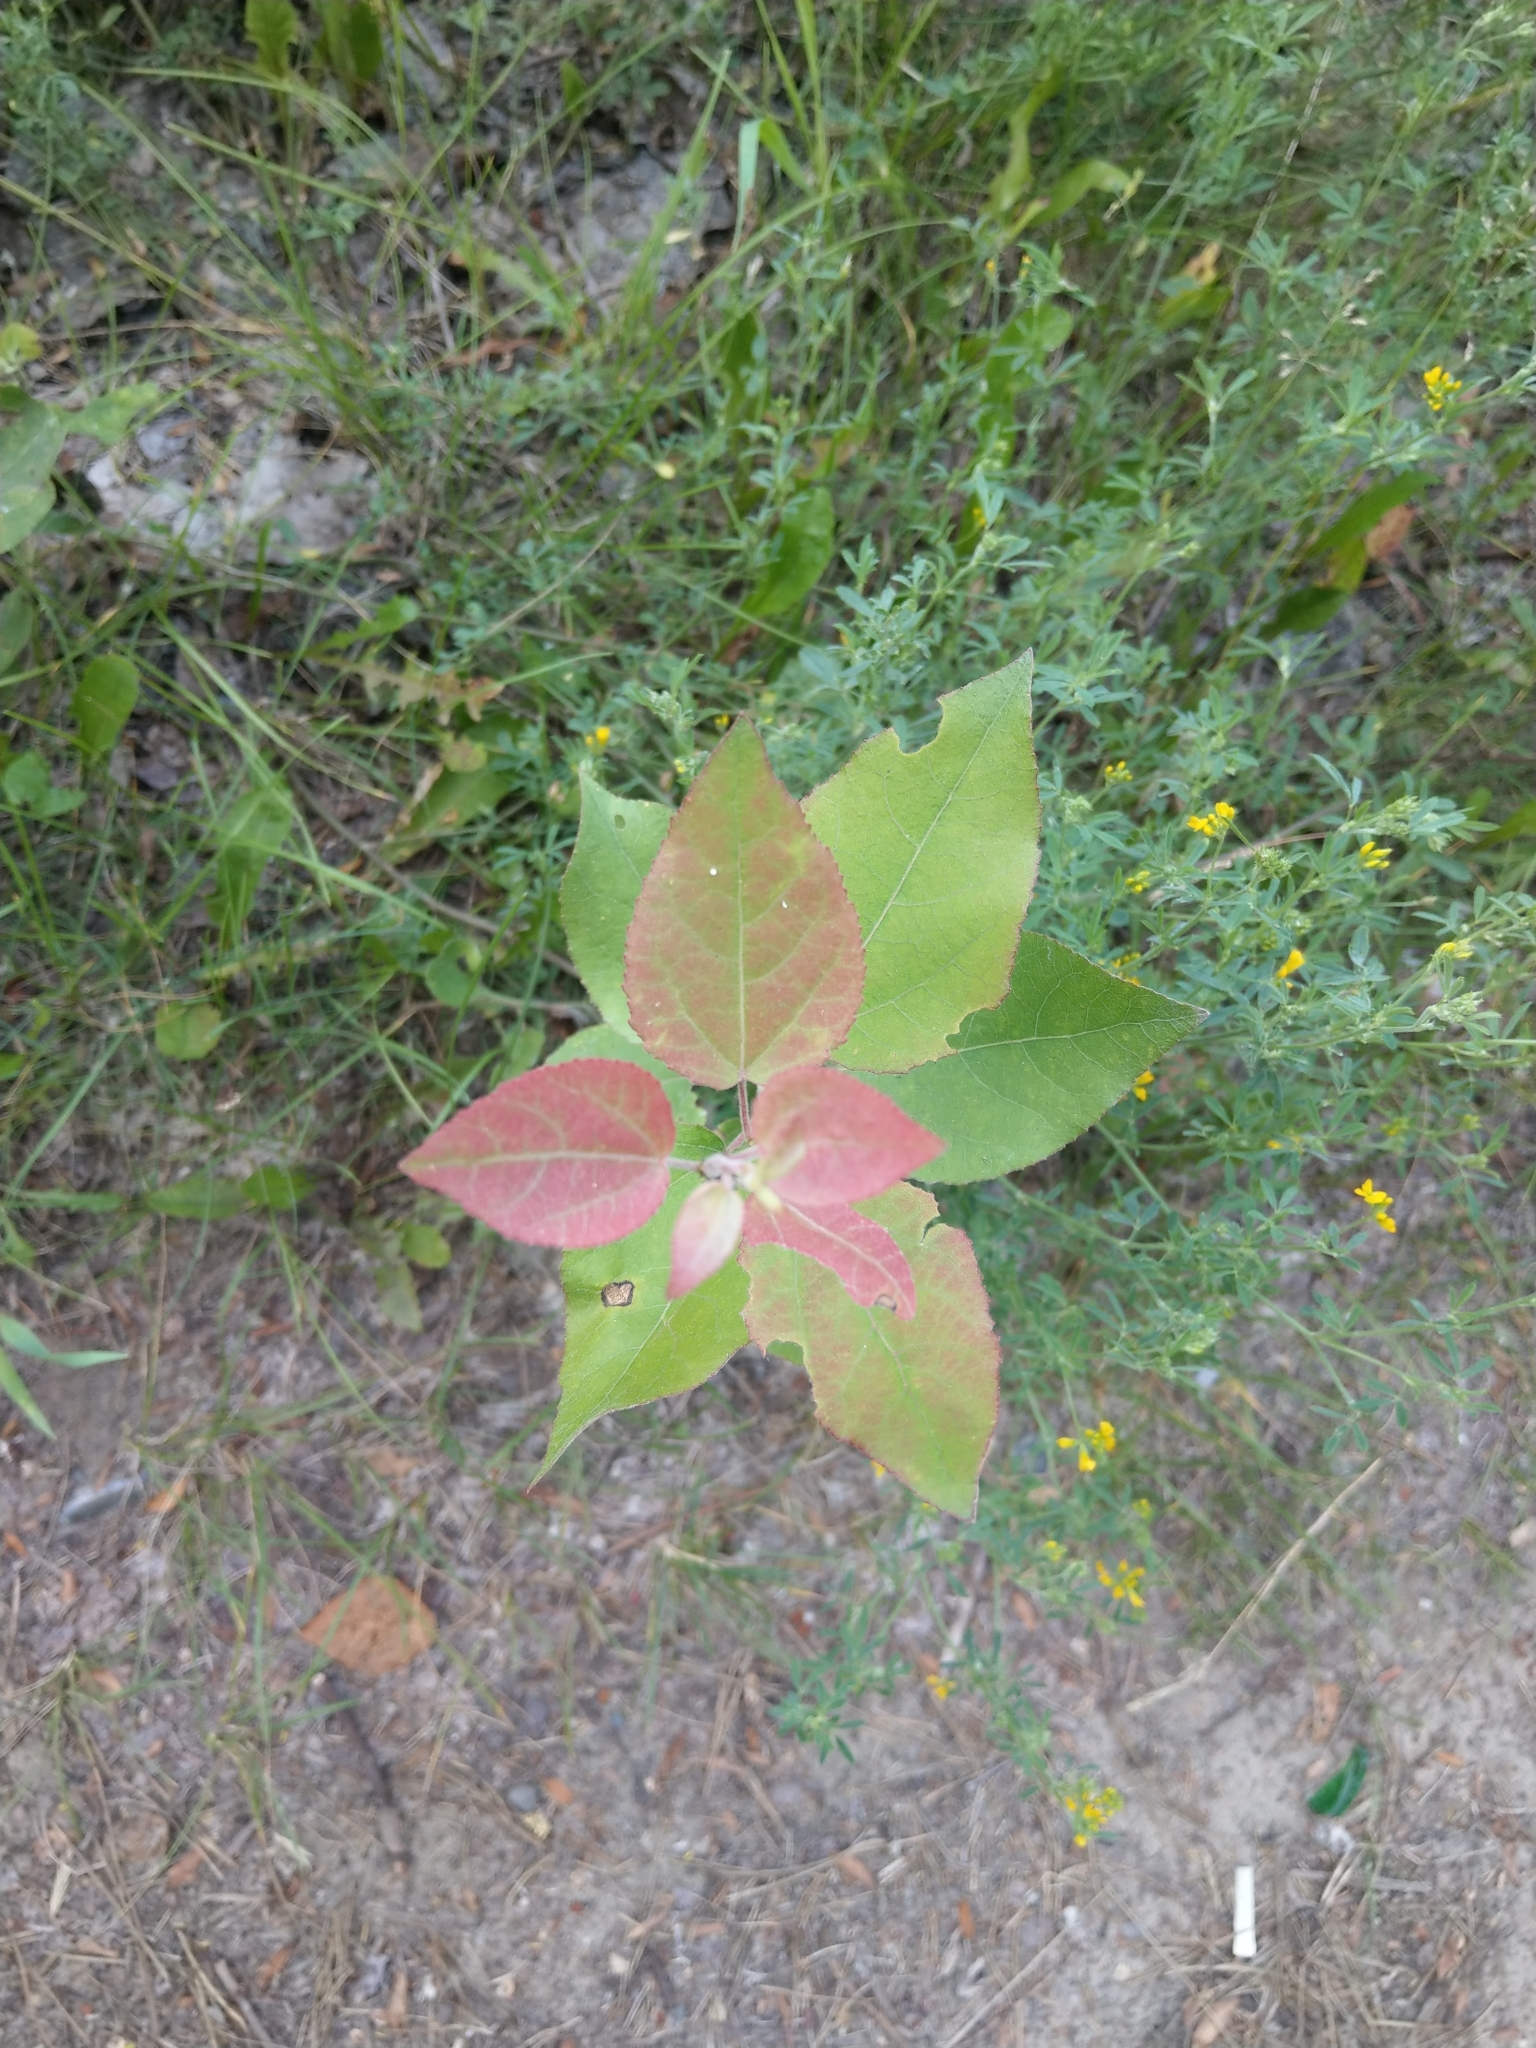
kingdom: Plantae
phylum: Tracheophyta
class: Magnoliopsida
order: Malpighiales
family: Salicaceae
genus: Populus
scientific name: Populus tremula
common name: European aspen
